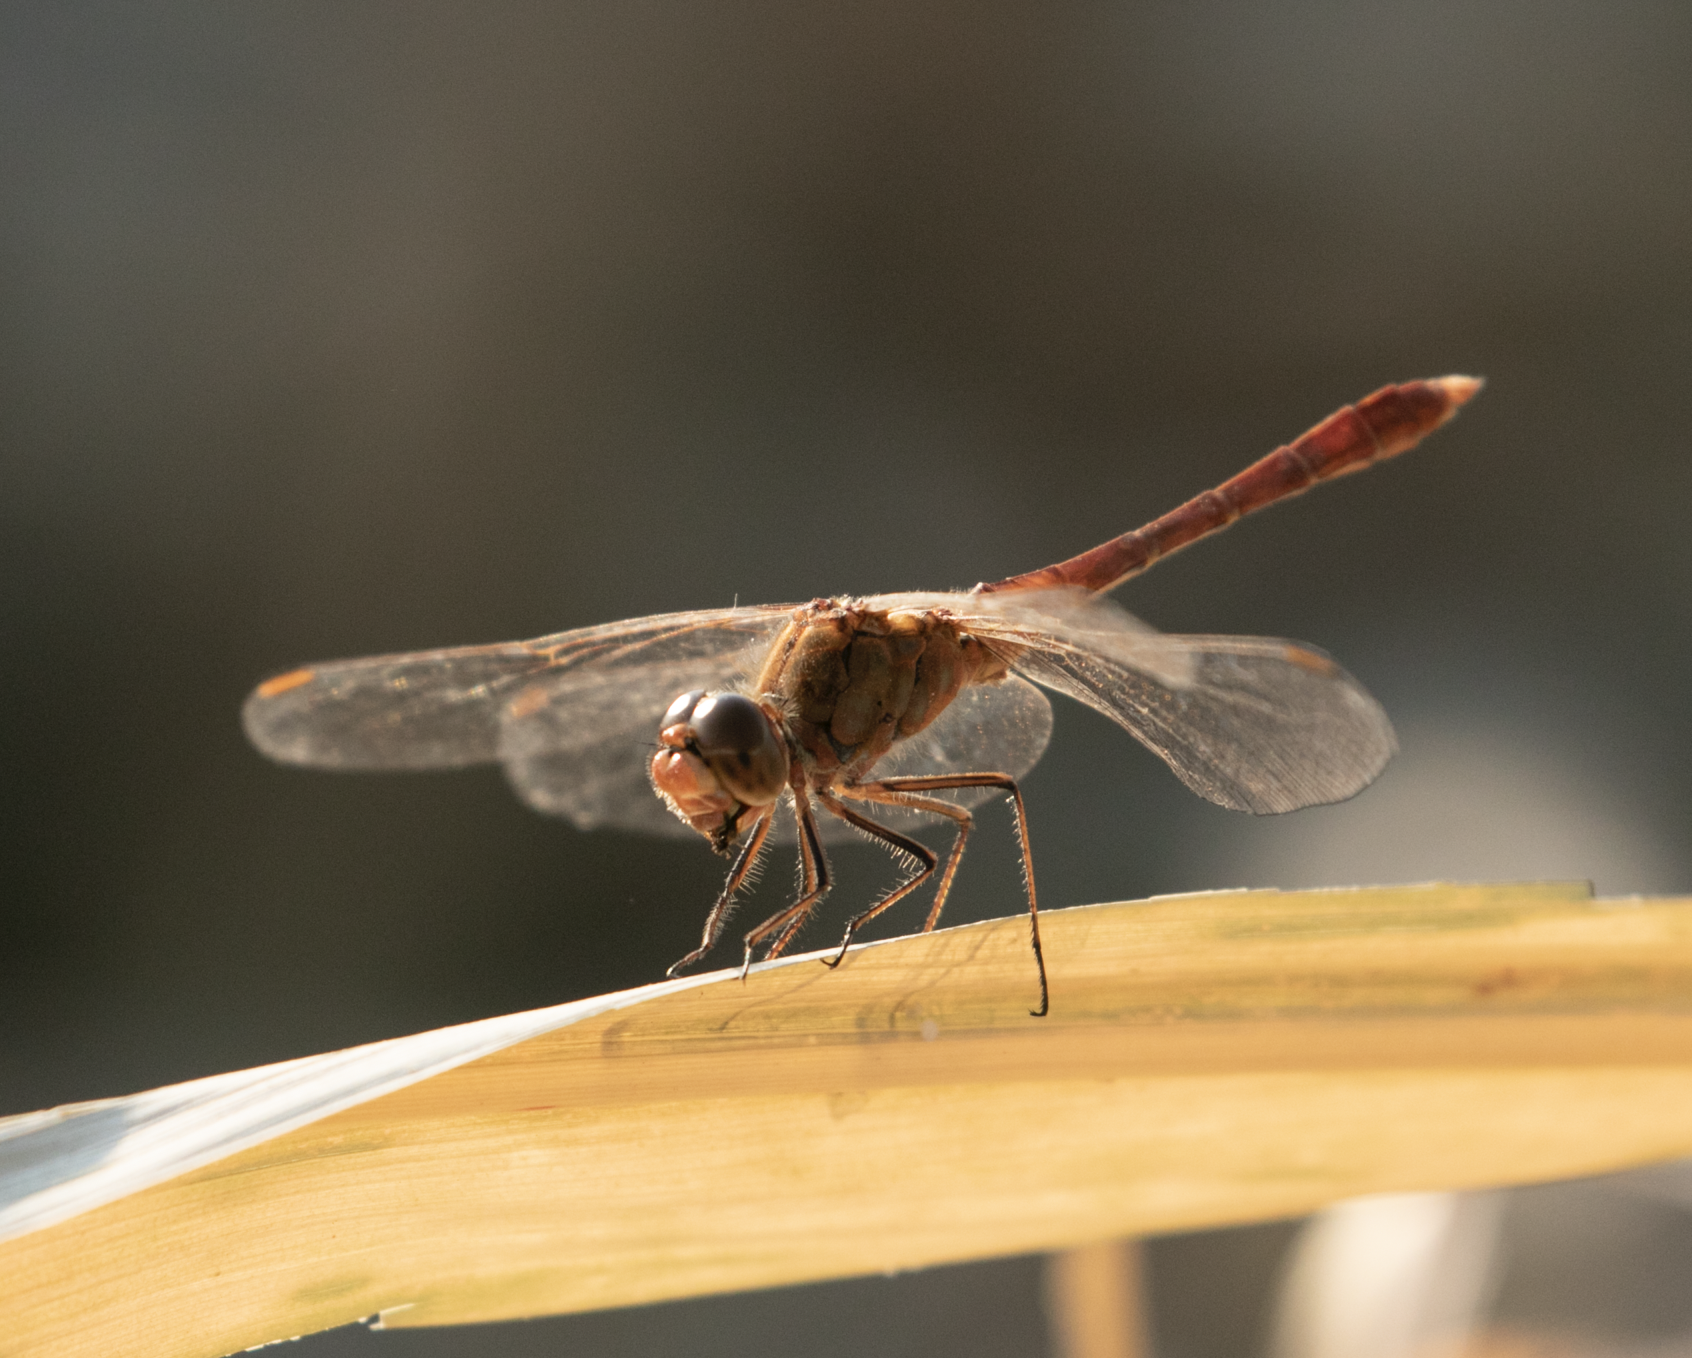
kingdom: Animalia
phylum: Arthropoda
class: Insecta
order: Odonata
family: Libellulidae
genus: Sympetrum
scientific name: Sympetrum meridionale
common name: Southern darter
